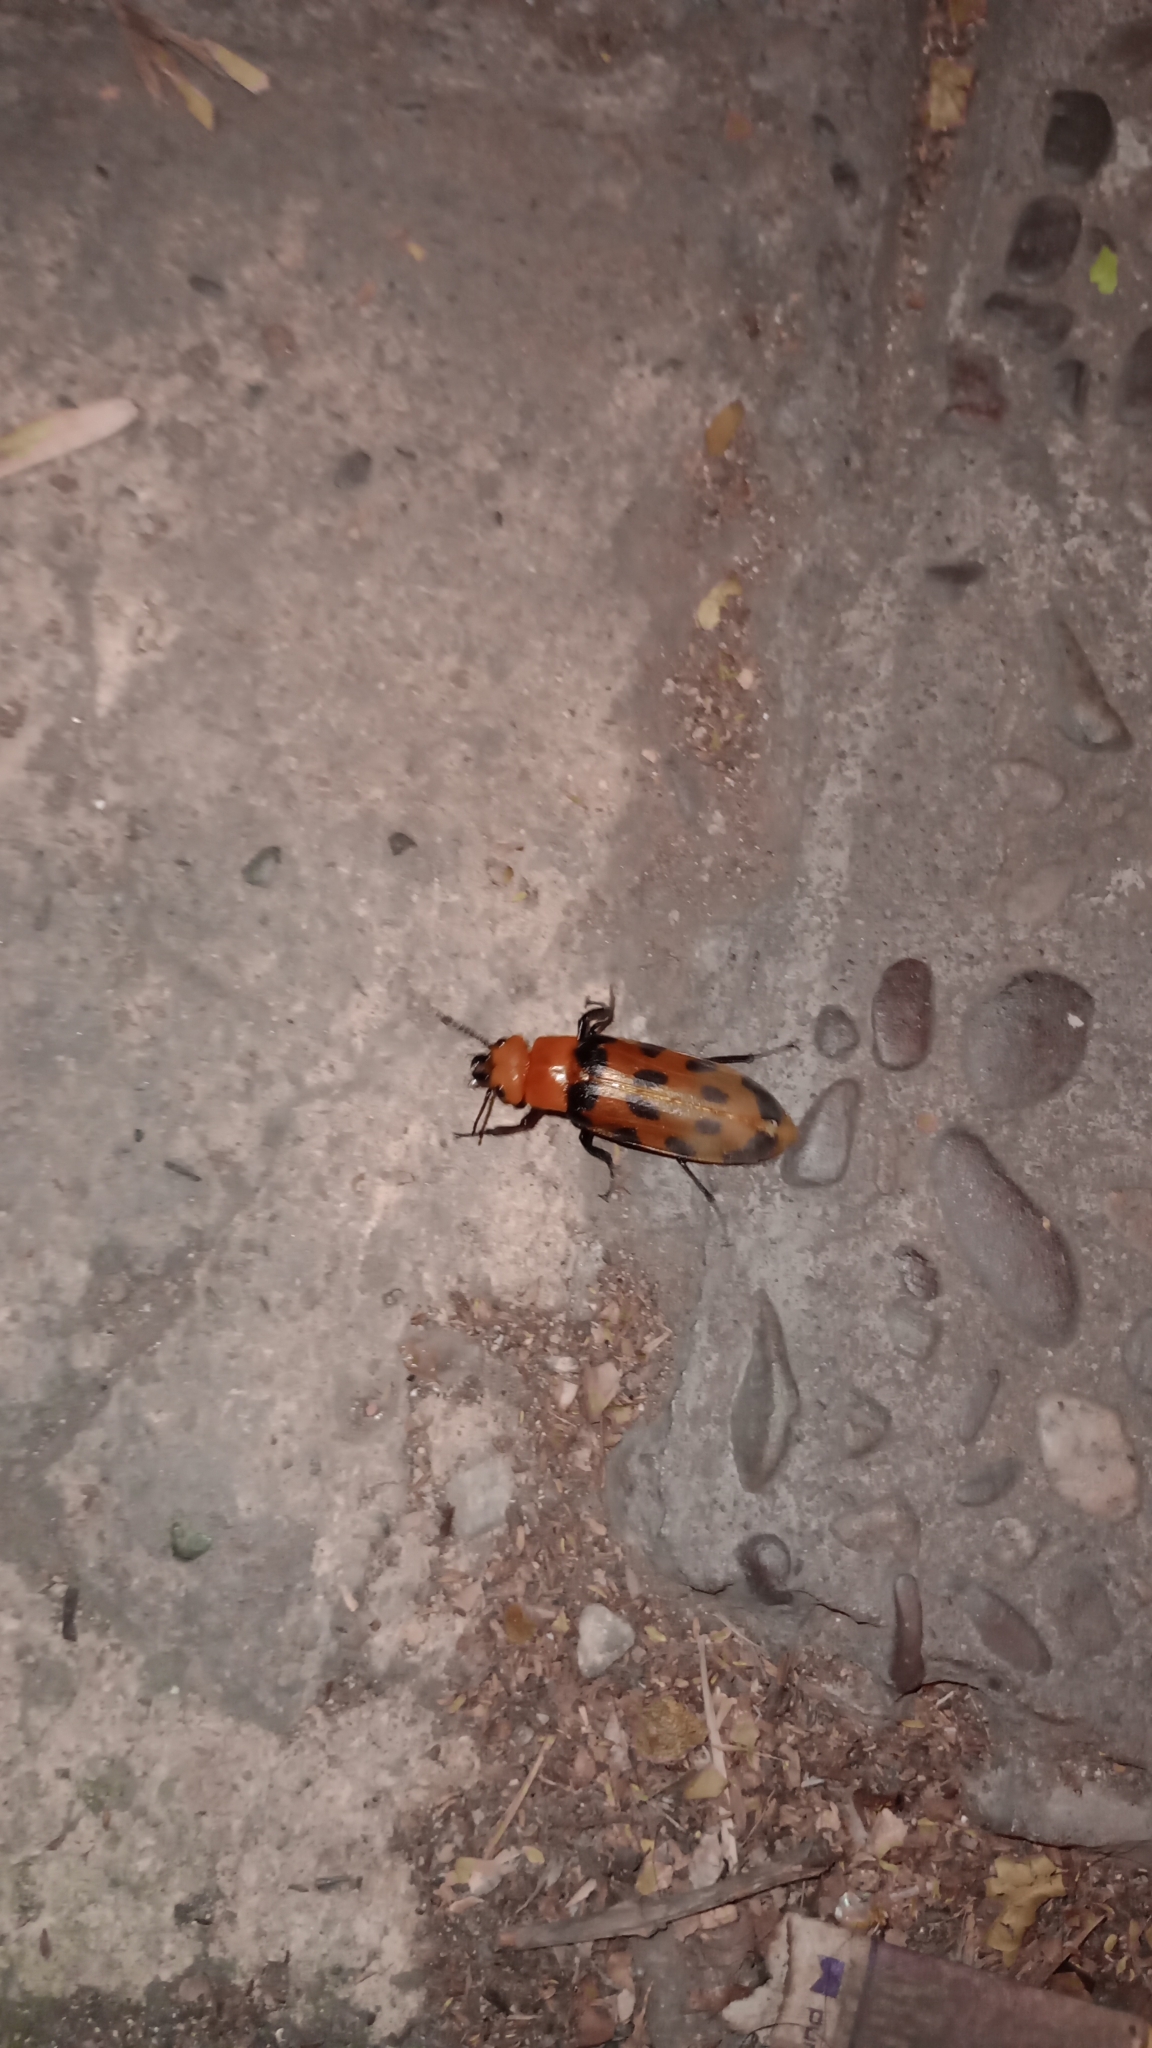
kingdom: Animalia
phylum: Arthropoda
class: Insecta
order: Coleoptera
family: Meloidae
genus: Cissites
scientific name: Cissites maculata
